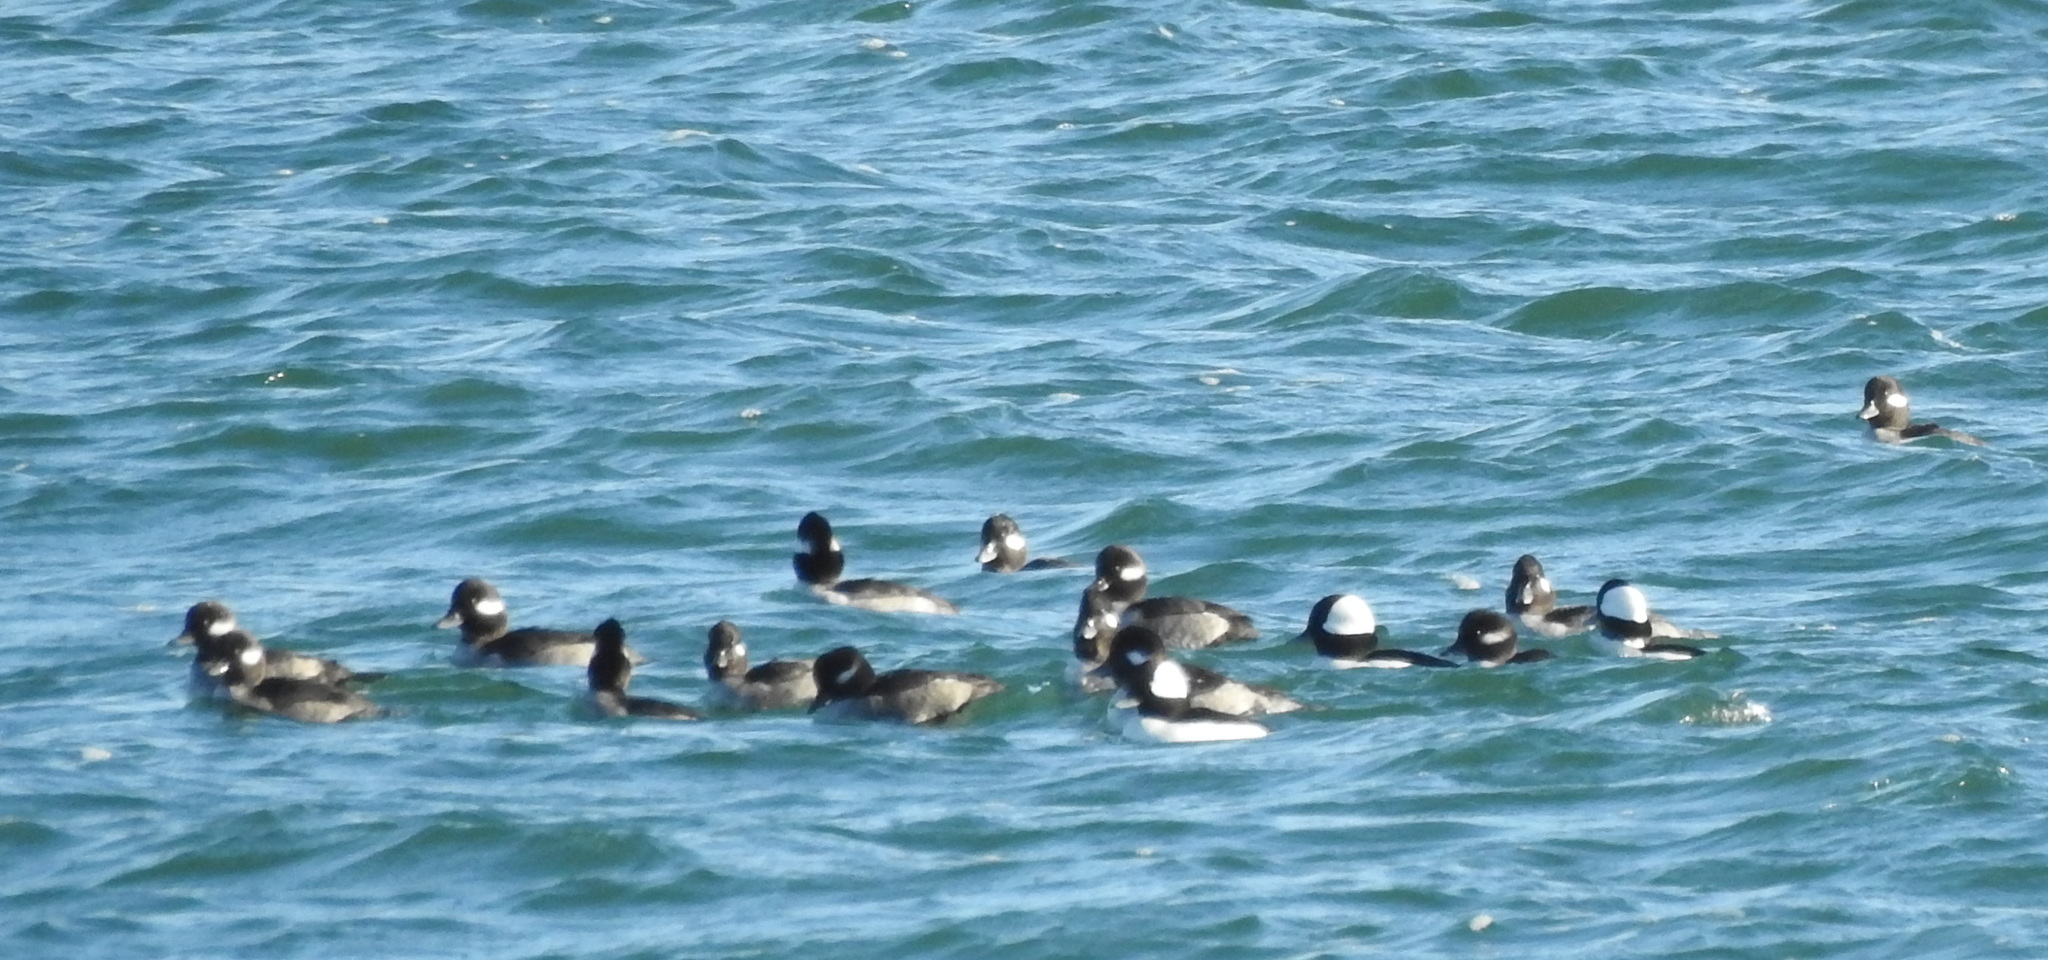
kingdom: Animalia
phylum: Chordata
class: Aves
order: Anseriformes
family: Anatidae
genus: Bucephala
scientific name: Bucephala albeola
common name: Bufflehead
